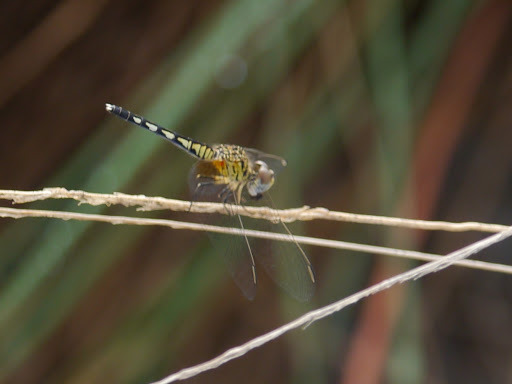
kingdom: Animalia
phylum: Arthropoda
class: Insecta
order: Odonata
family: Libellulidae
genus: Diplacodes
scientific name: Diplacodes deminuta
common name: Little percher
